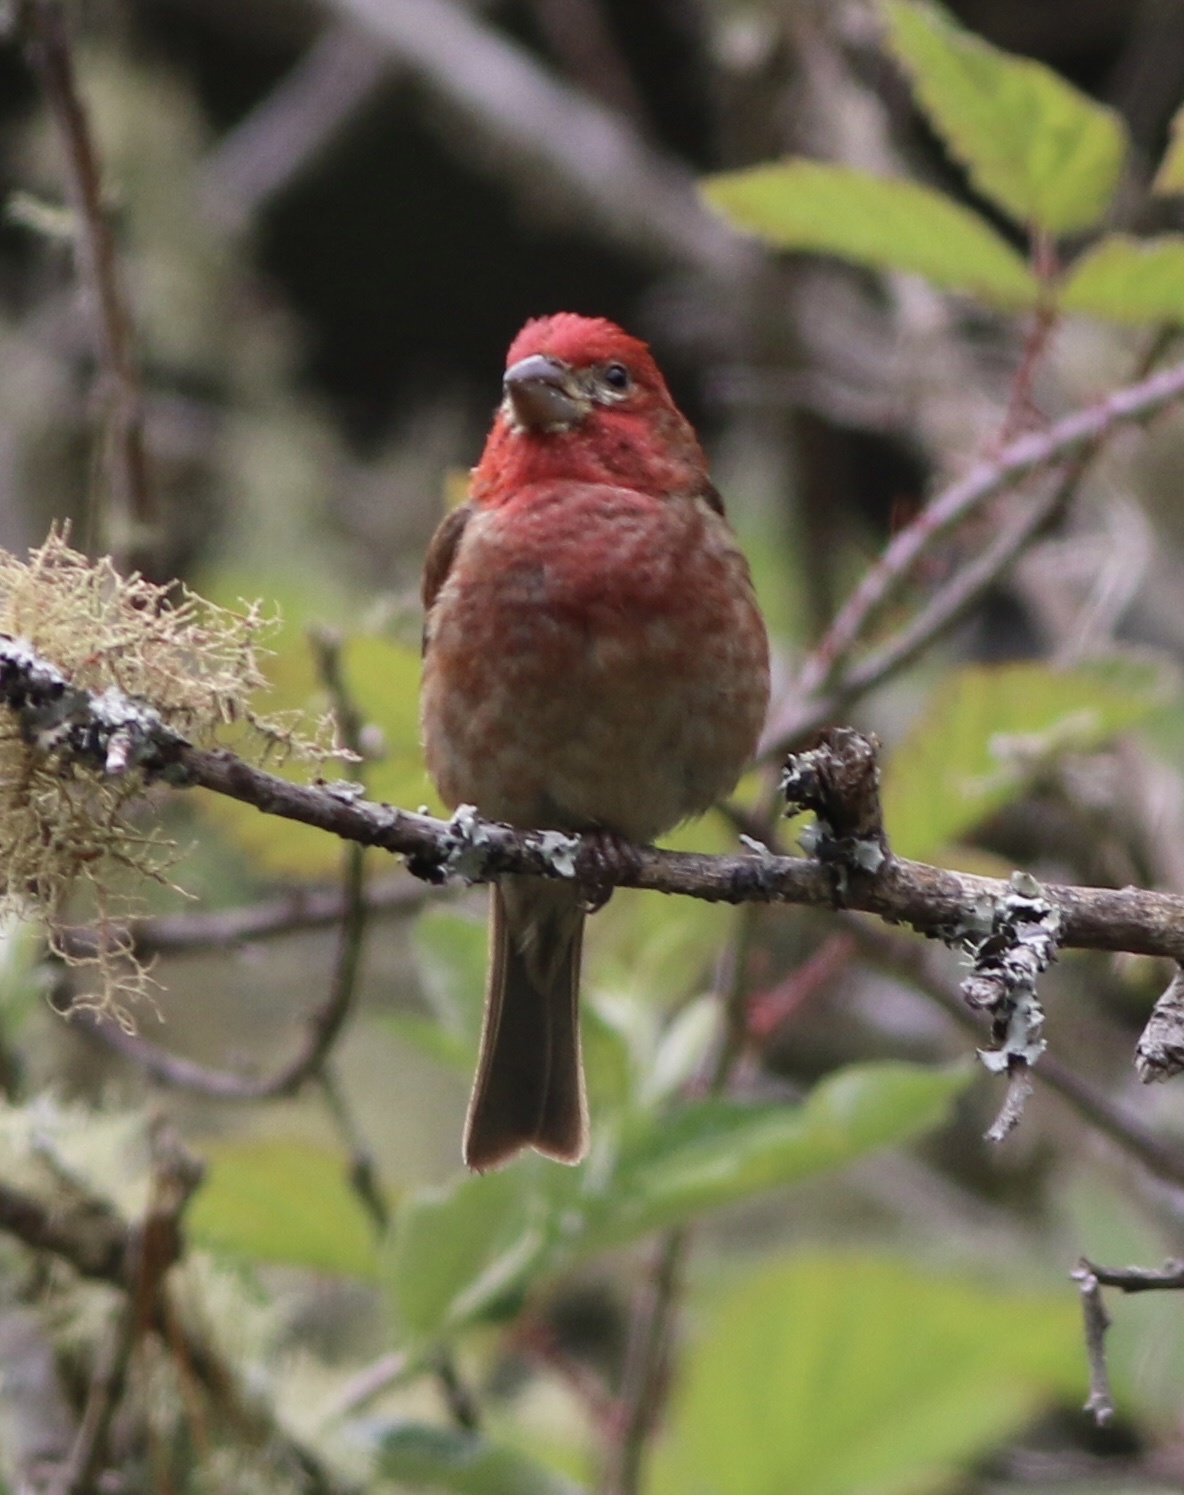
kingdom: Animalia
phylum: Chordata
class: Aves
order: Passeriformes
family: Fringillidae
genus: Haemorhous
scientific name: Haemorhous purpureus
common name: Purple finch
